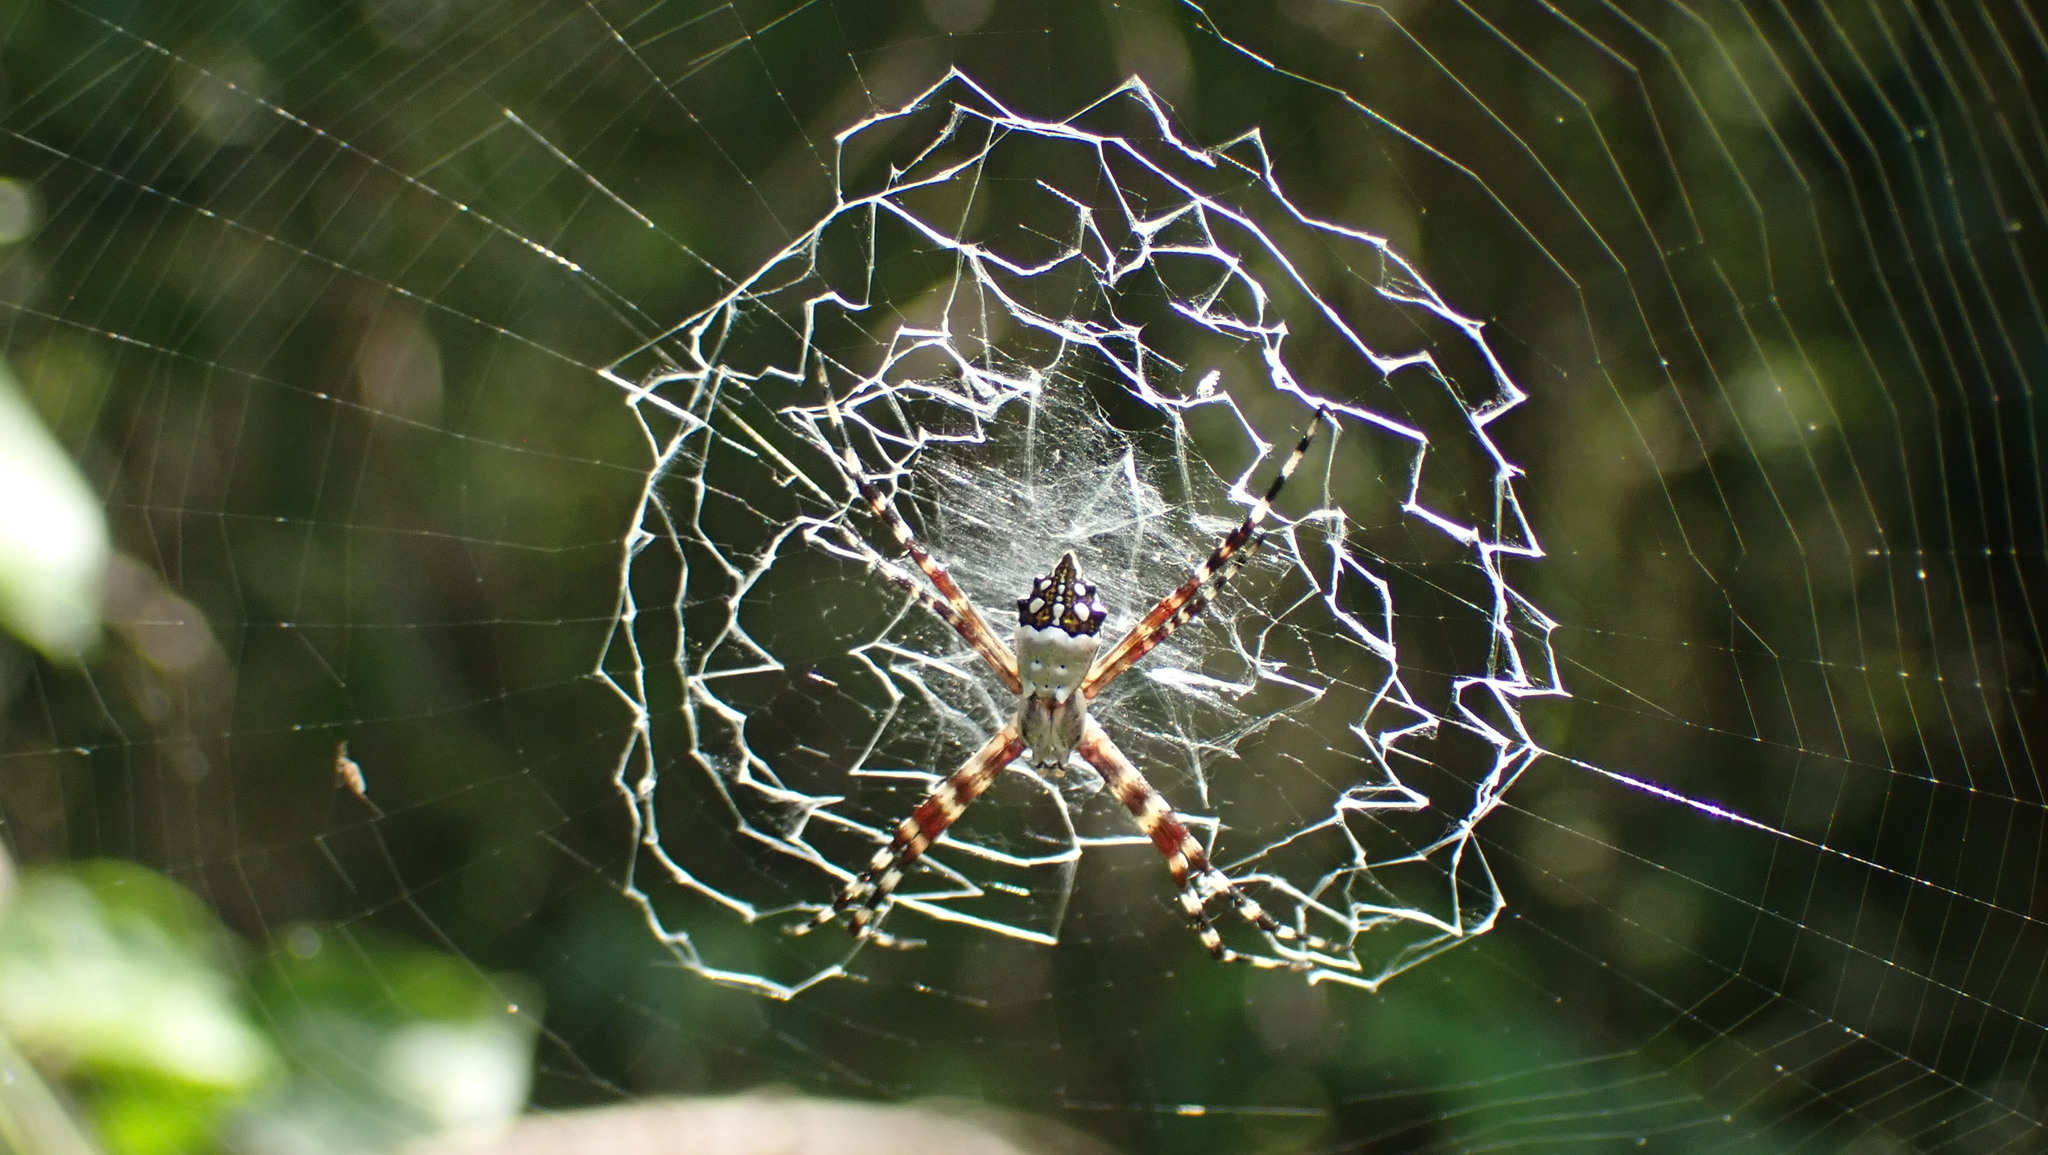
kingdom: Animalia
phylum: Arthropoda
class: Arachnida
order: Araneae
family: Araneidae
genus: Argiope
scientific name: Argiope argentata
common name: Orb weavers
